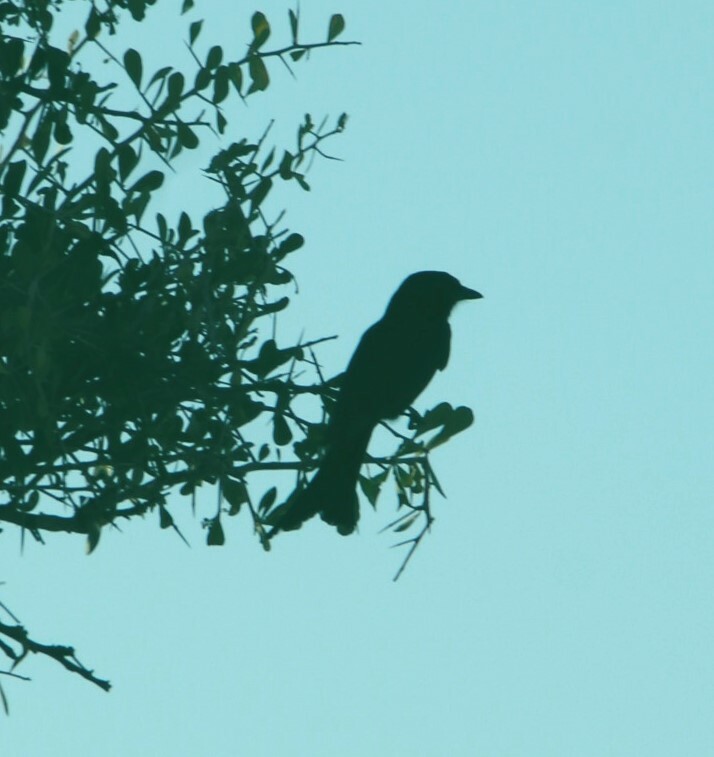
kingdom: Animalia
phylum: Chordata
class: Aves
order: Passeriformes
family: Dicruridae
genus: Dicrurus
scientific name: Dicrurus adsimilis
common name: Fork-tailed drongo
